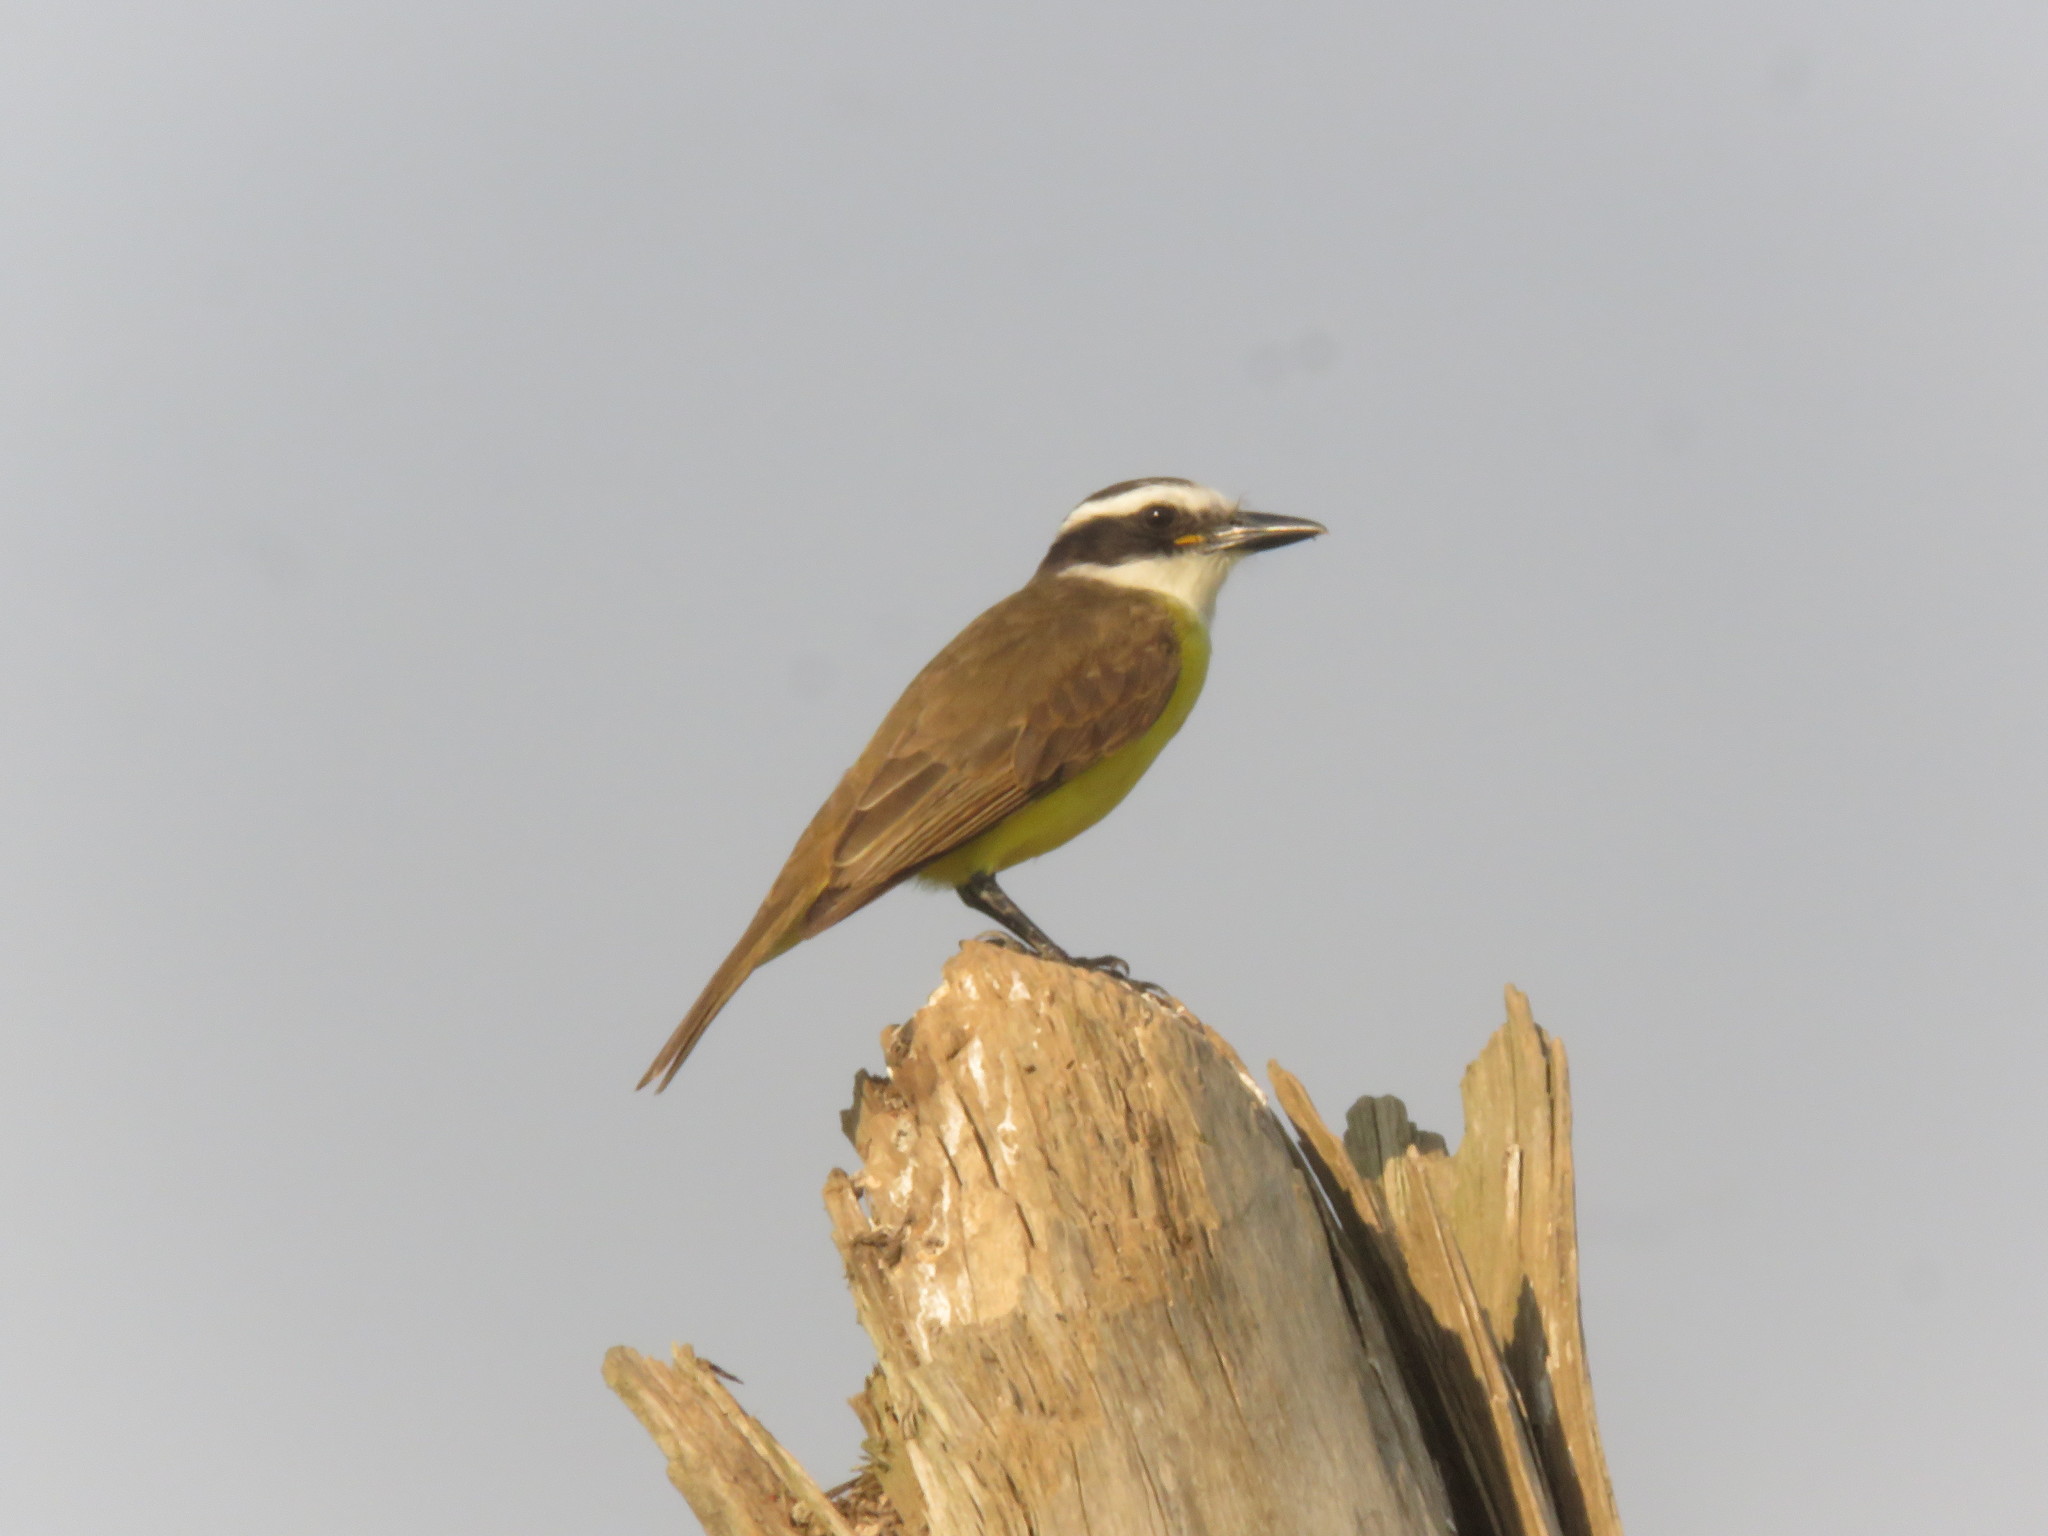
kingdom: Animalia
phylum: Chordata
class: Aves
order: Passeriformes
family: Tyrannidae
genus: Pitangus
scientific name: Pitangus sulphuratus
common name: Great kiskadee
